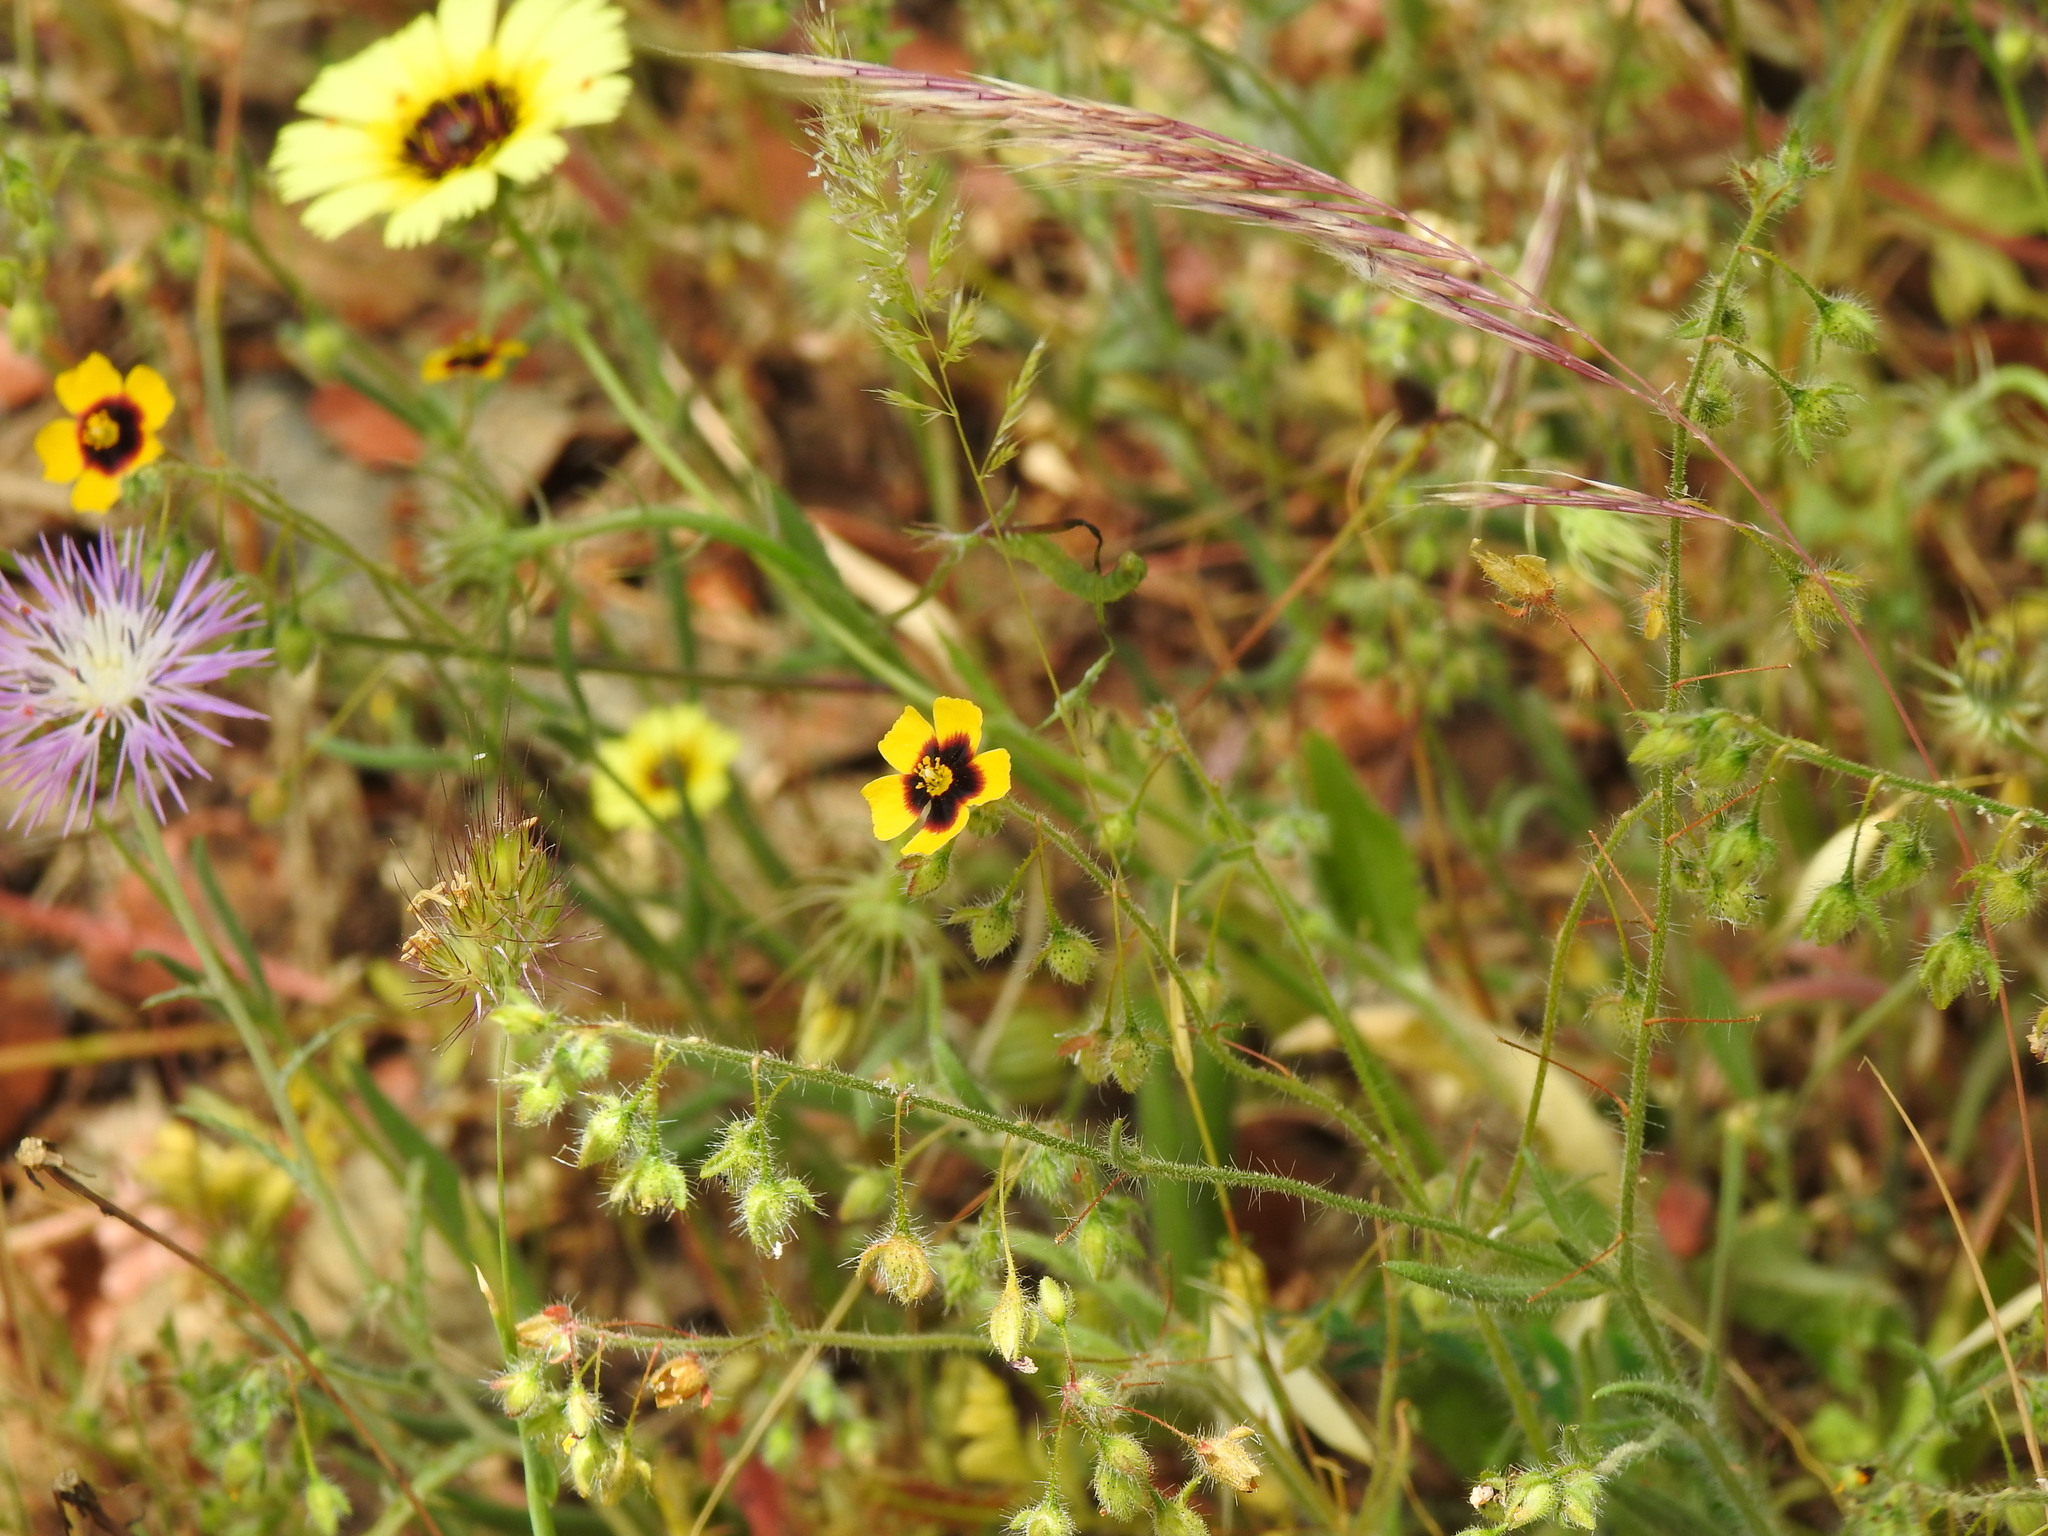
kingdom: Plantae
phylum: Tracheophyta
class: Magnoliopsida
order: Malvales
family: Cistaceae
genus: Tuberaria
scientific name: Tuberaria guttata
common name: Spotted rock-rose
